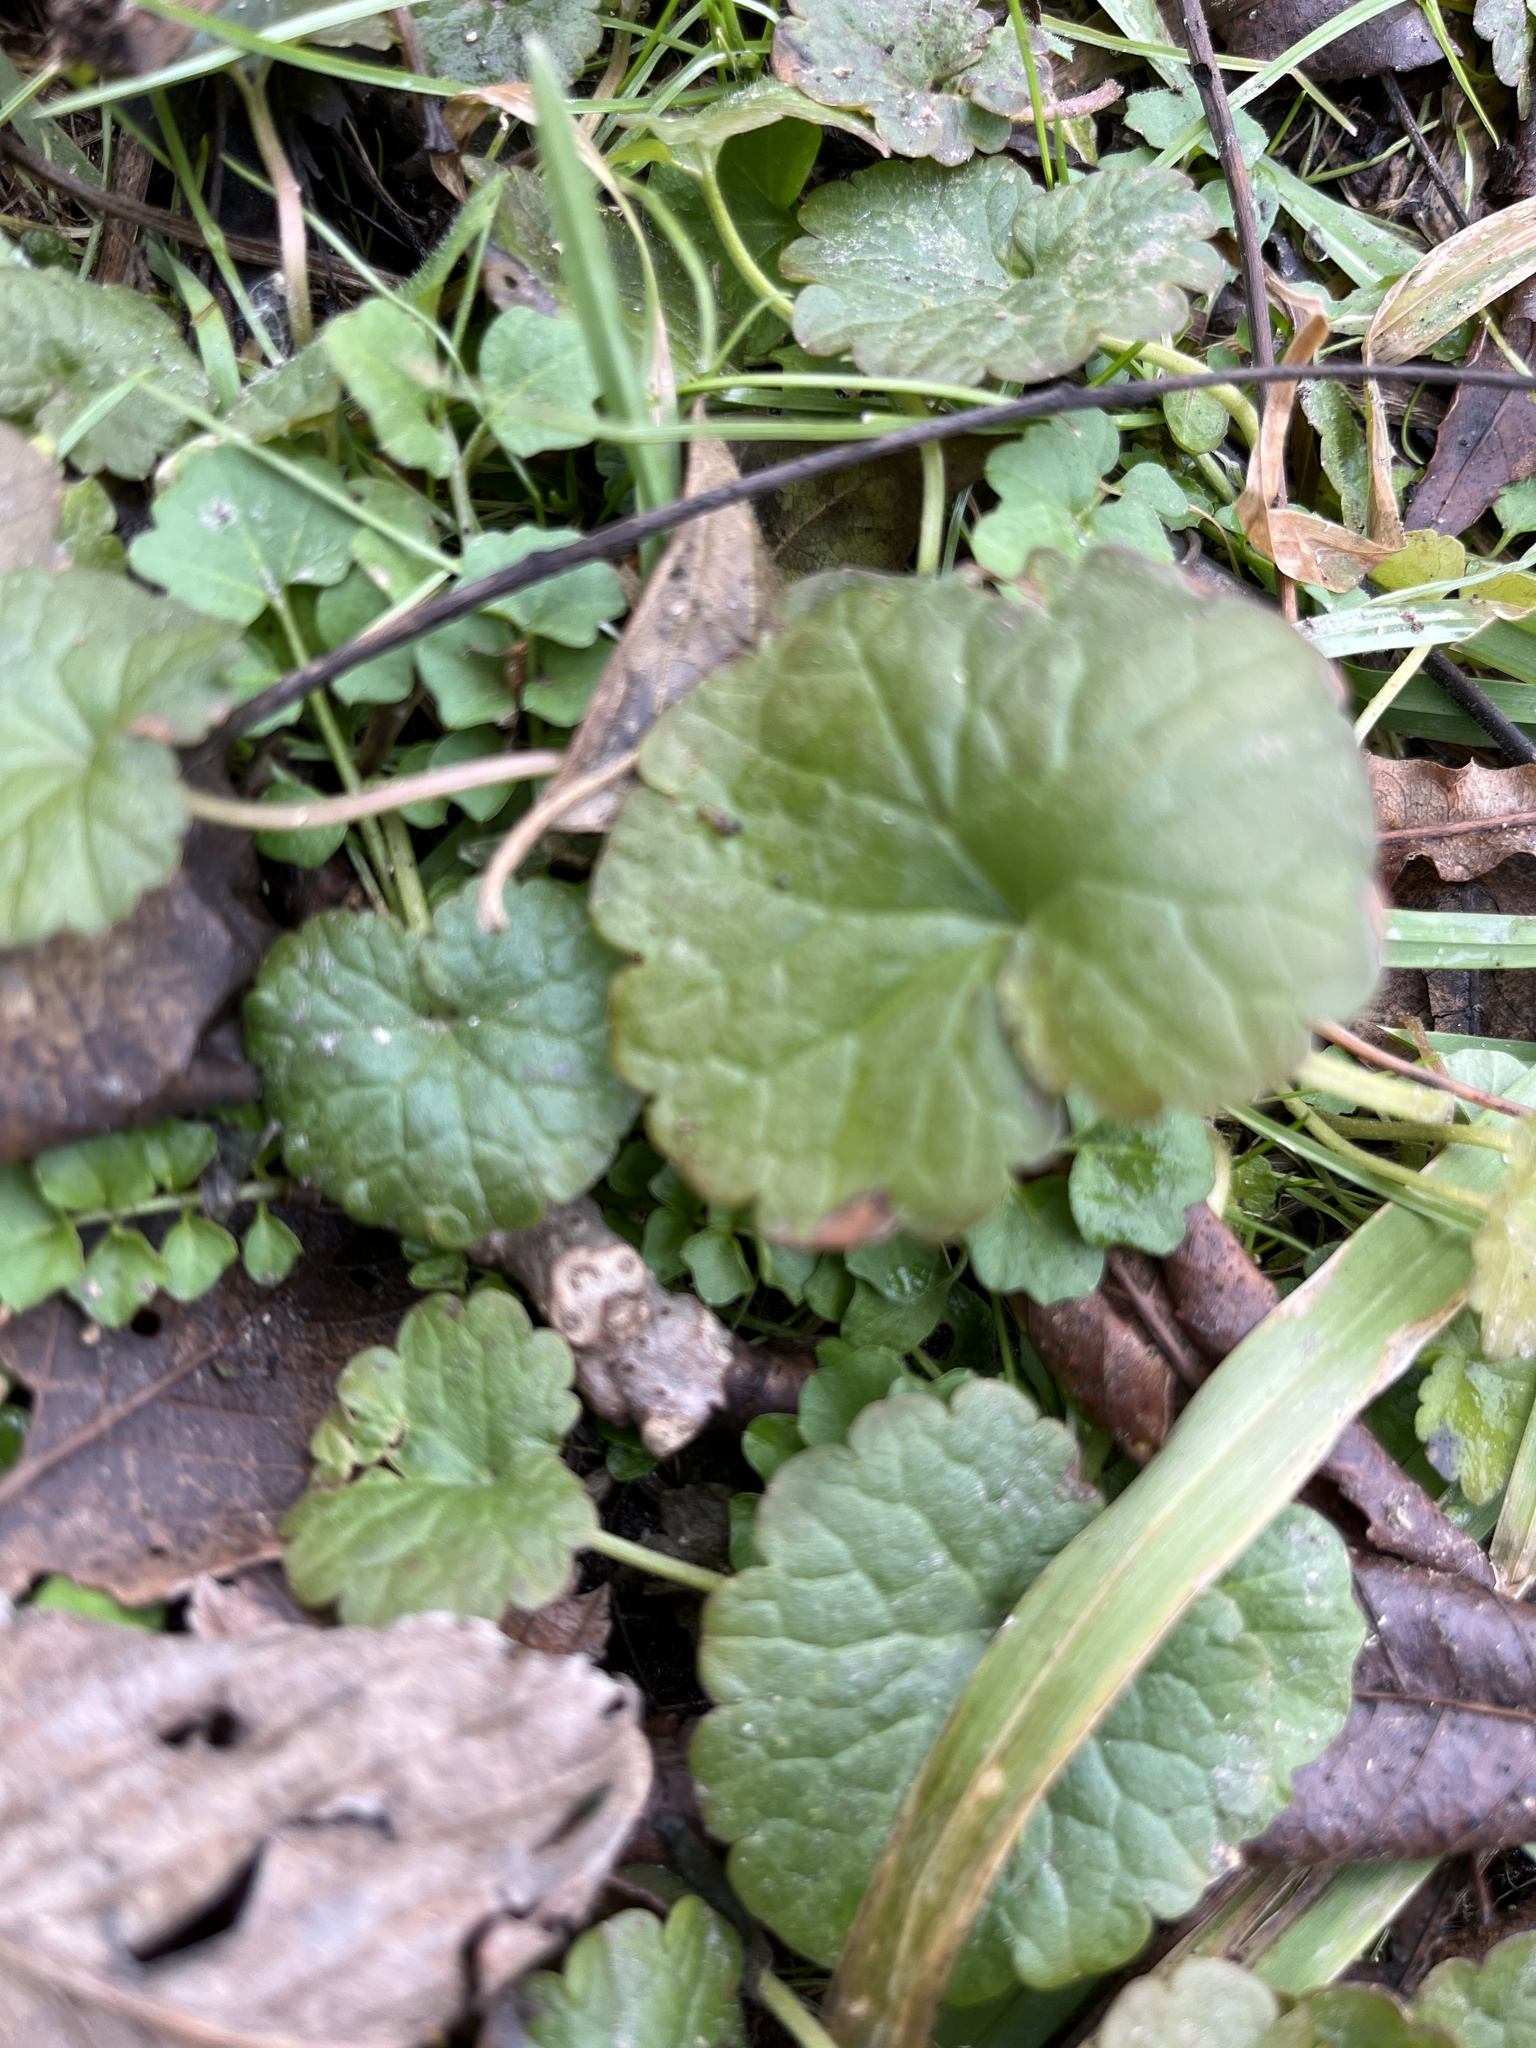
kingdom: Plantae
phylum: Tracheophyta
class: Magnoliopsida
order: Lamiales
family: Lamiaceae
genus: Glechoma
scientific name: Glechoma hederacea
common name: Ground ivy
